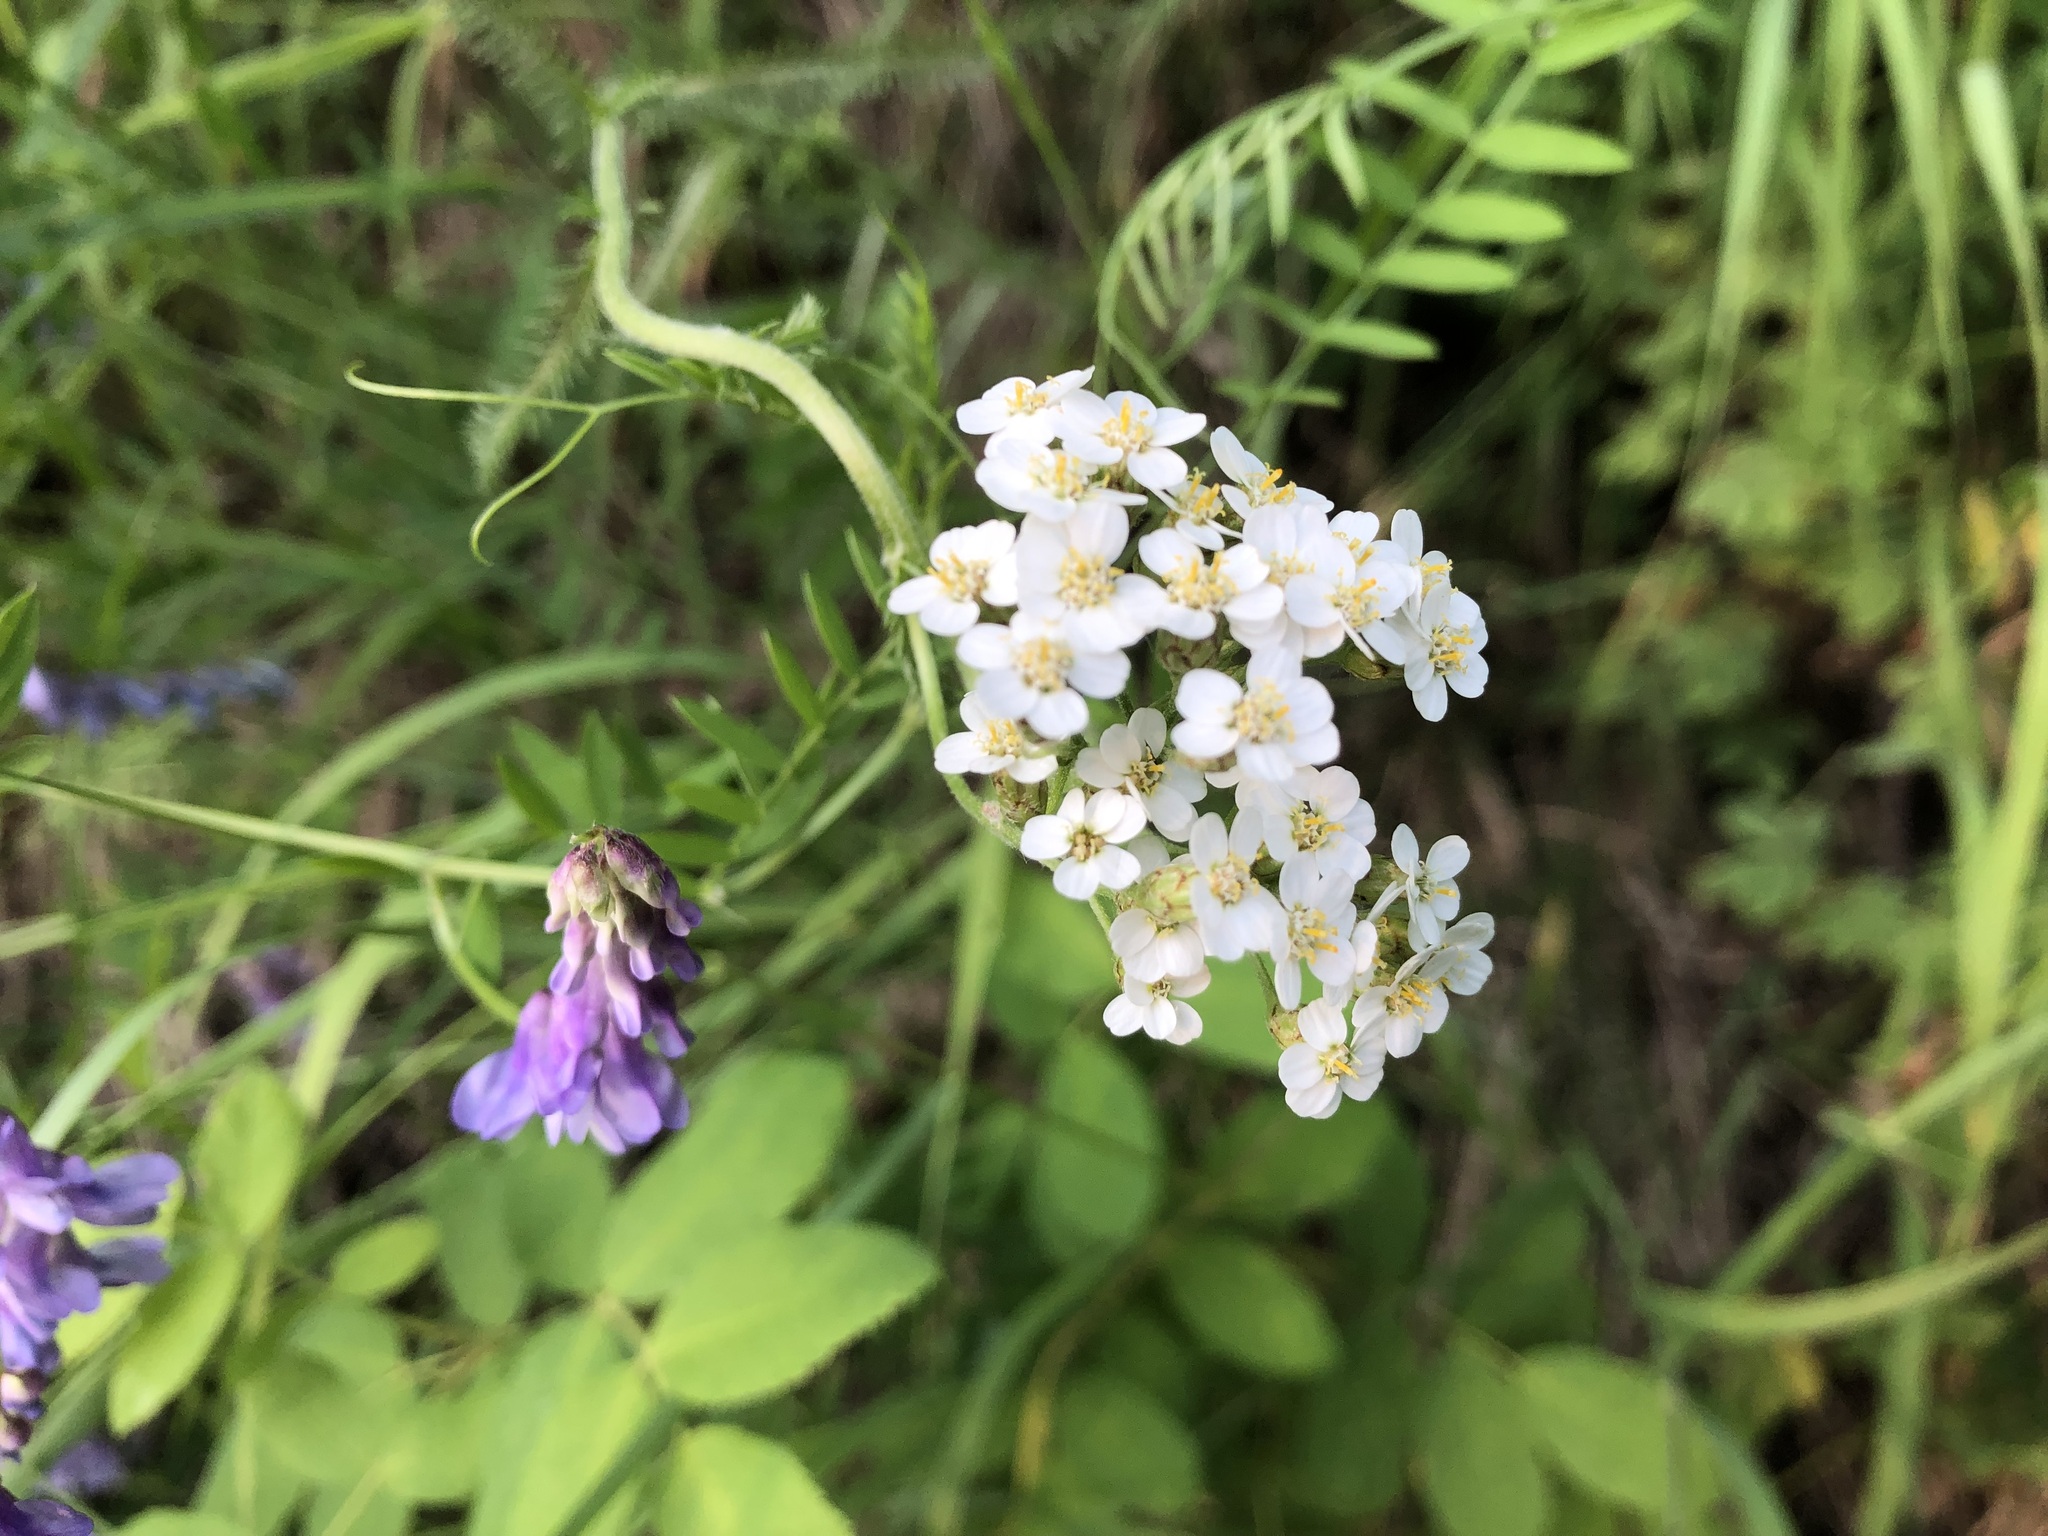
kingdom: Plantae
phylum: Tracheophyta
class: Magnoliopsida
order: Asterales
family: Asteraceae
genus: Achillea
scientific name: Achillea millefolium
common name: Yarrow
